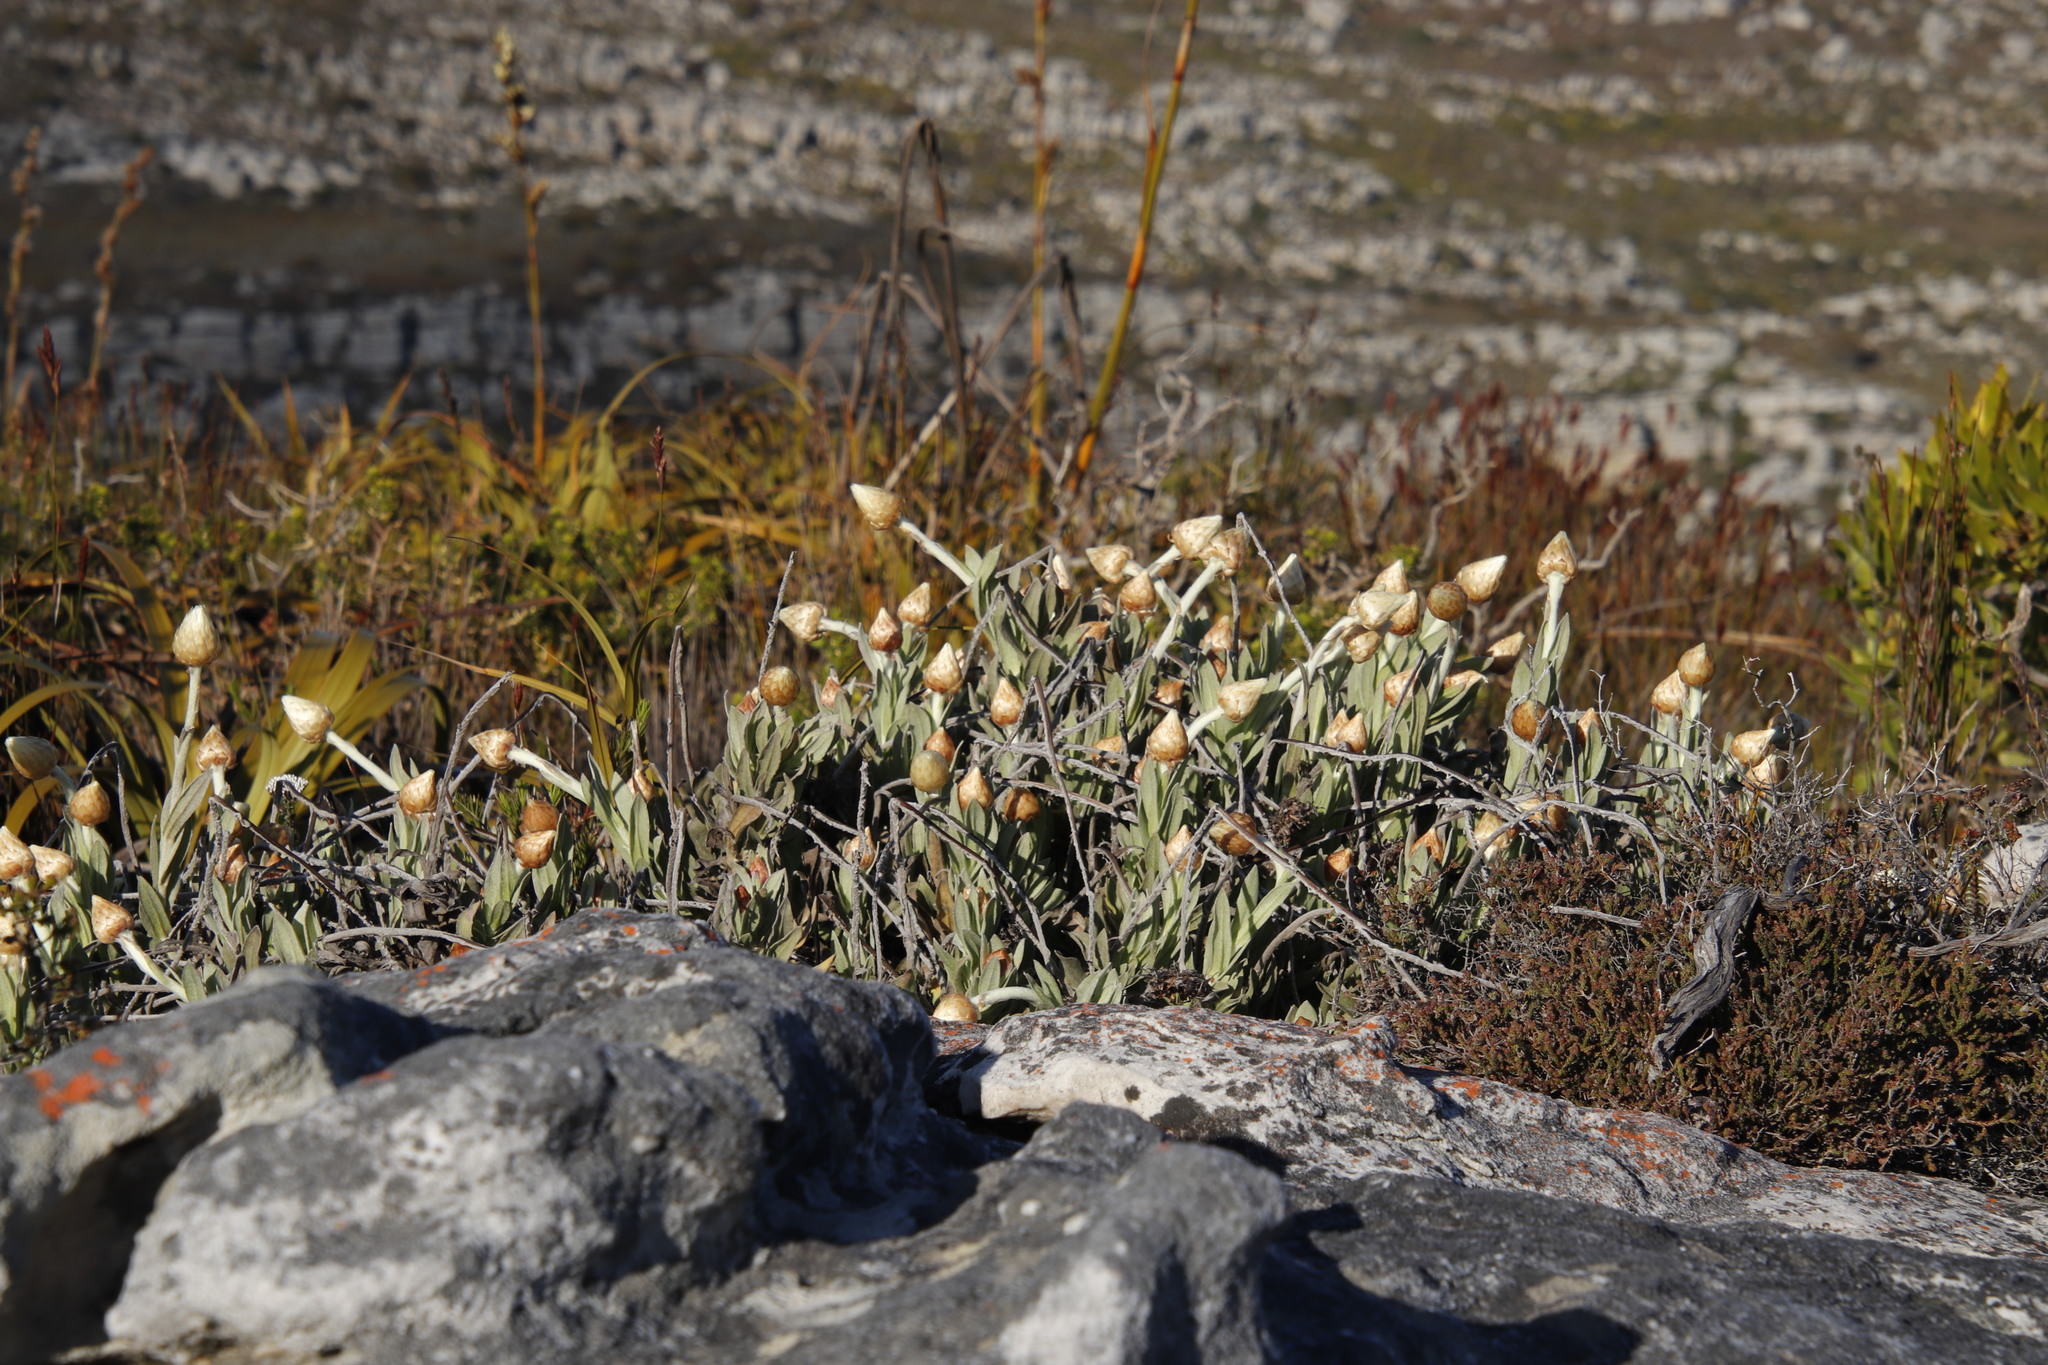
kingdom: Plantae
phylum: Tracheophyta
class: Magnoliopsida
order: Asterales
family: Asteraceae
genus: Syncarpha
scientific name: Syncarpha speciosissima
